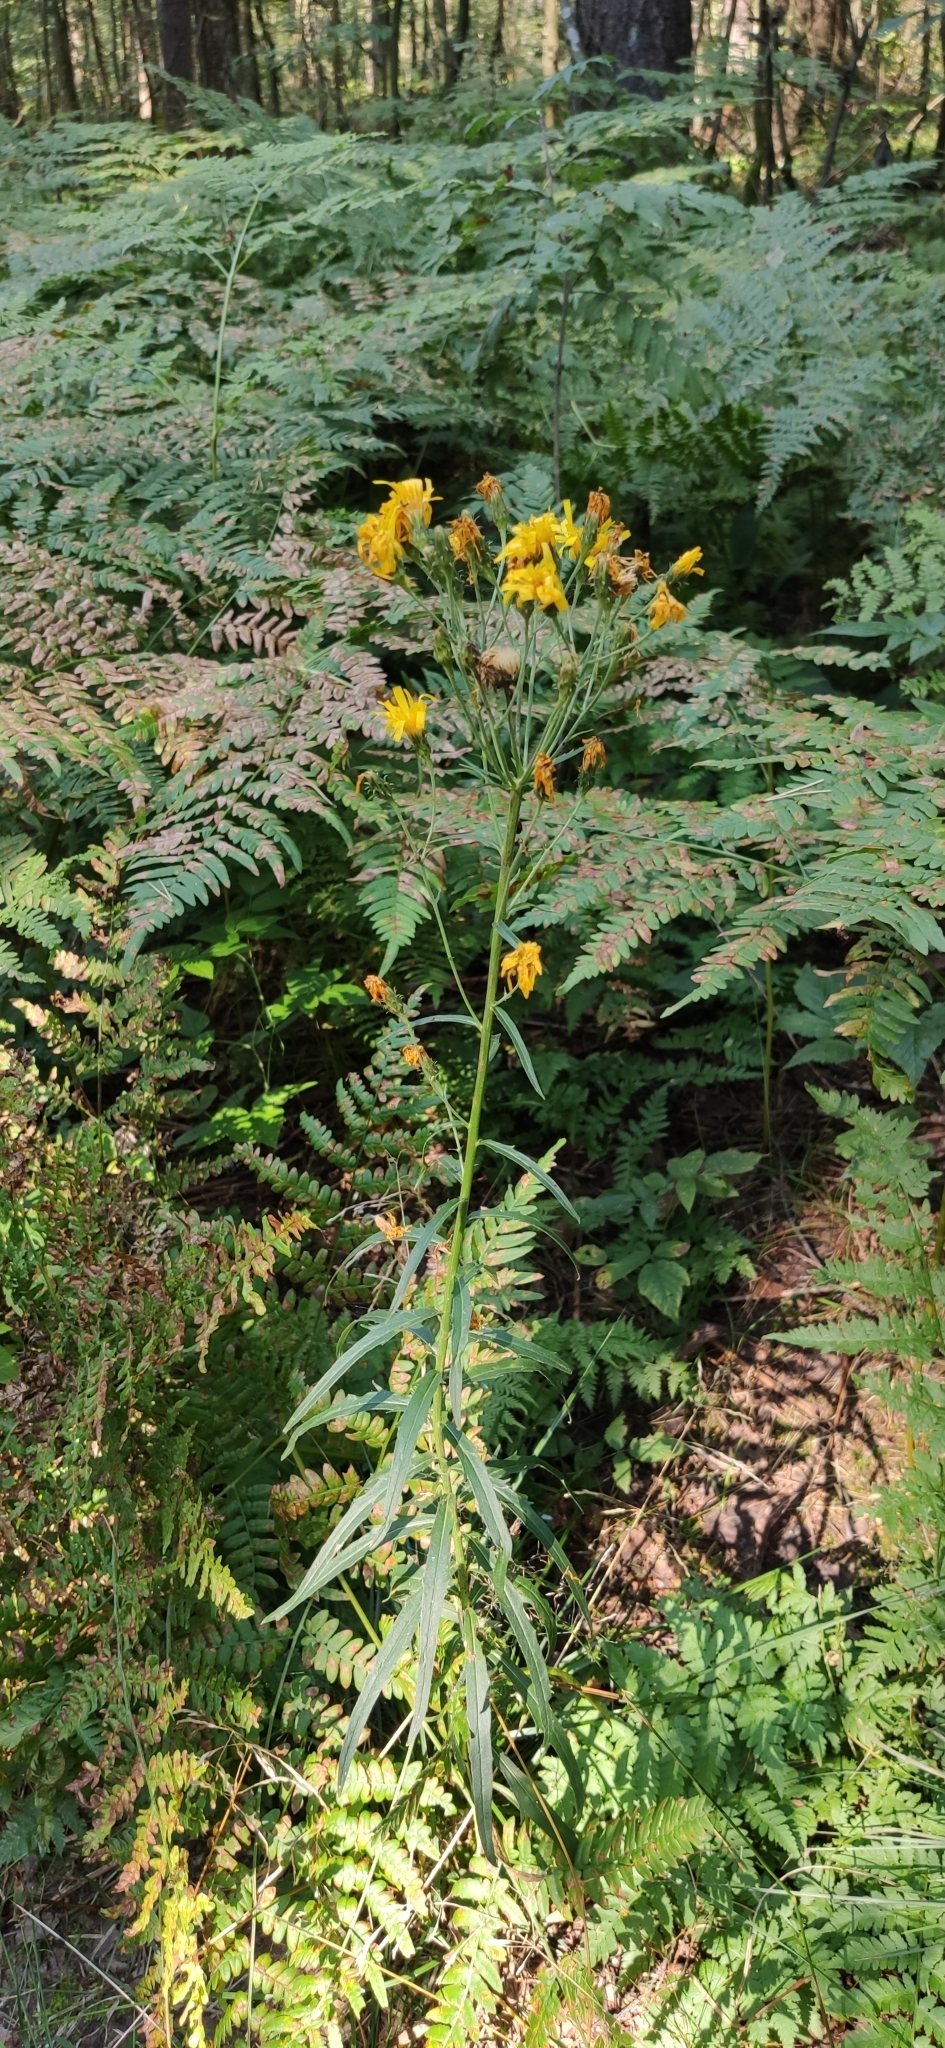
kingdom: Plantae
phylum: Tracheophyta
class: Magnoliopsida
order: Asterales
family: Asteraceae
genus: Hieracium
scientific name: Hieracium umbellatum
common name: Northern hawkweed
